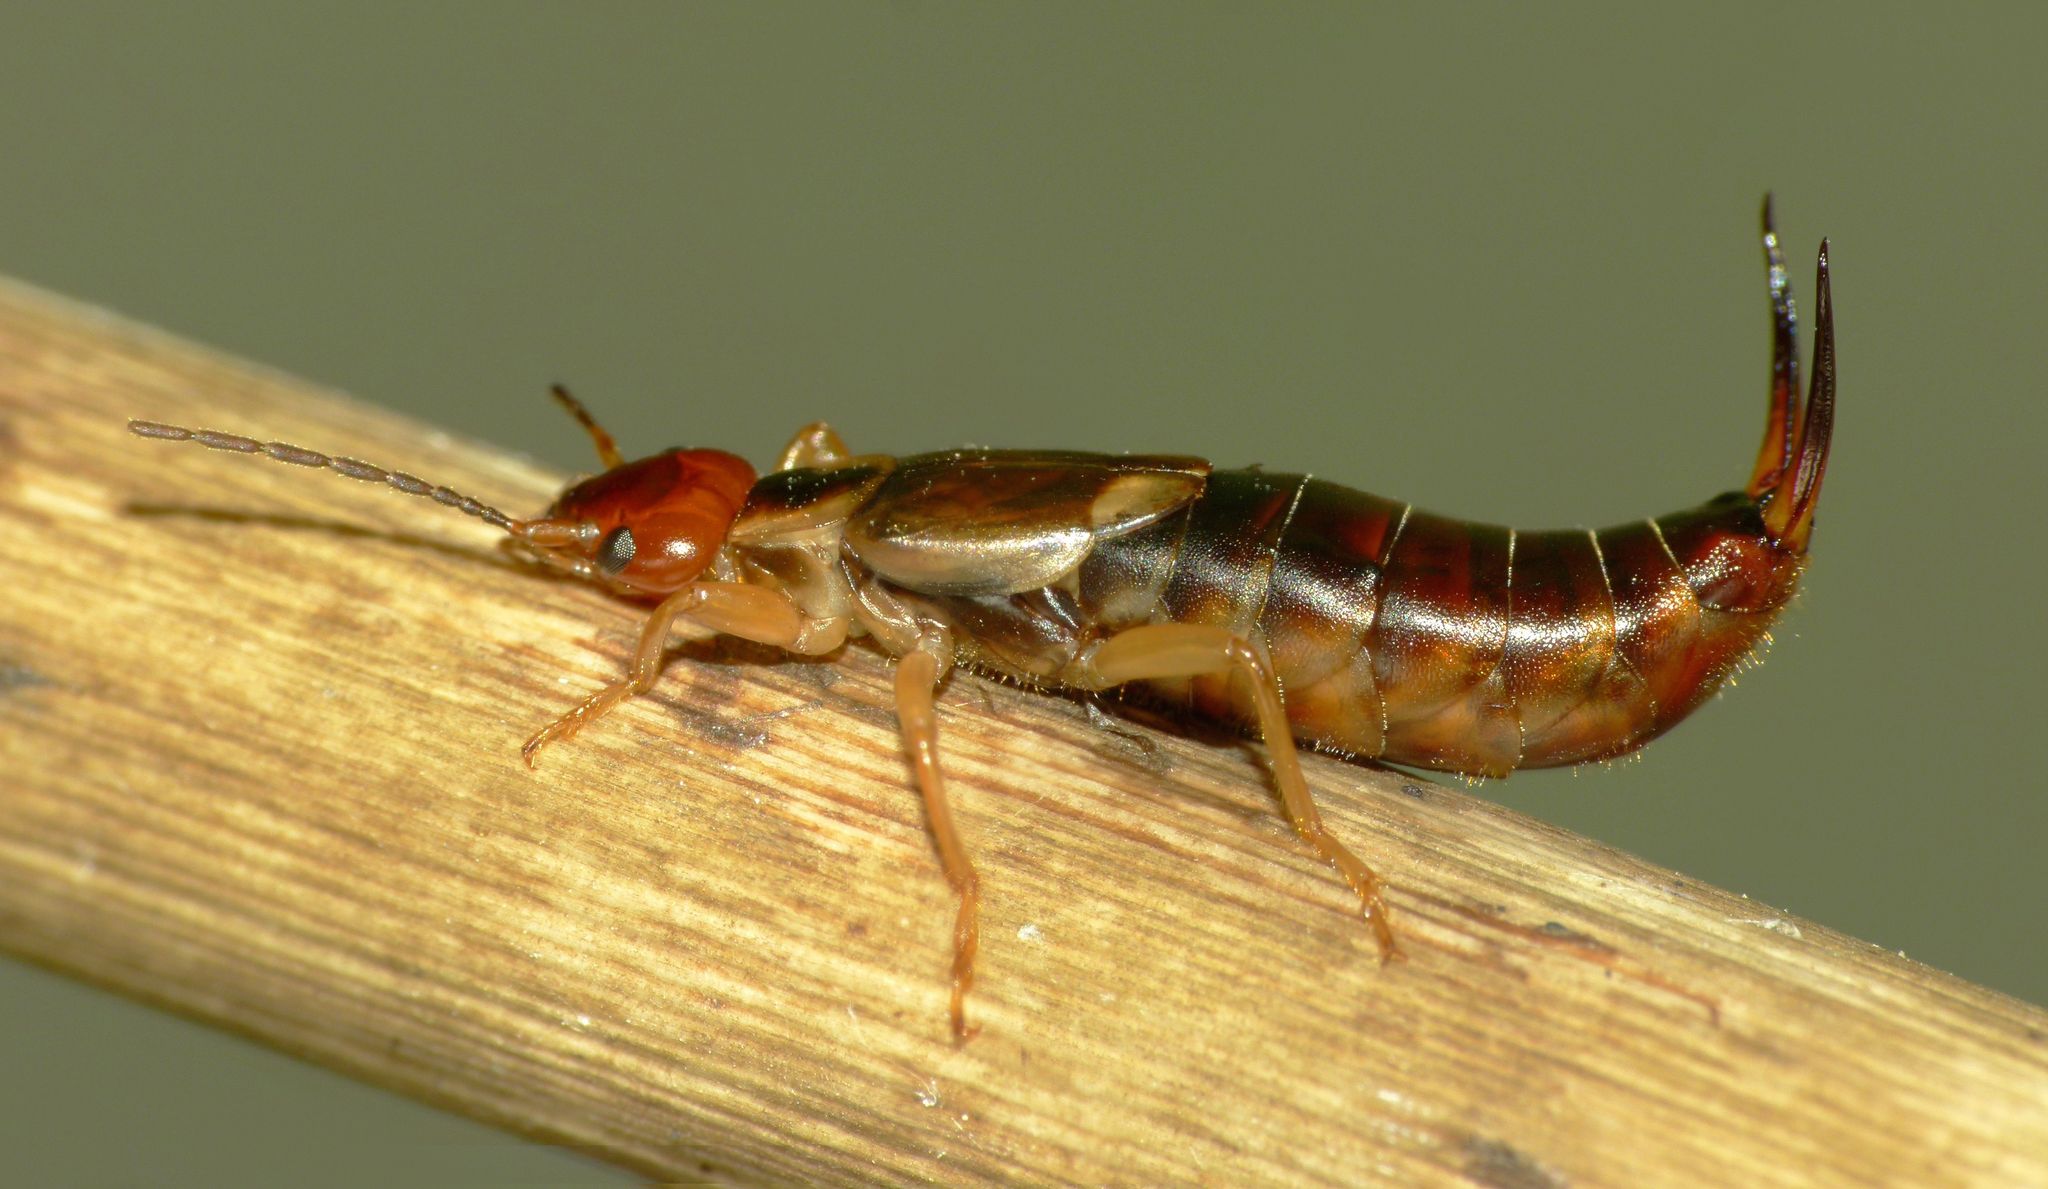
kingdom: Animalia
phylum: Arthropoda
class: Insecta
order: Dermaptera
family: Forficulidae
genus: Forficula
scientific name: Forficula
